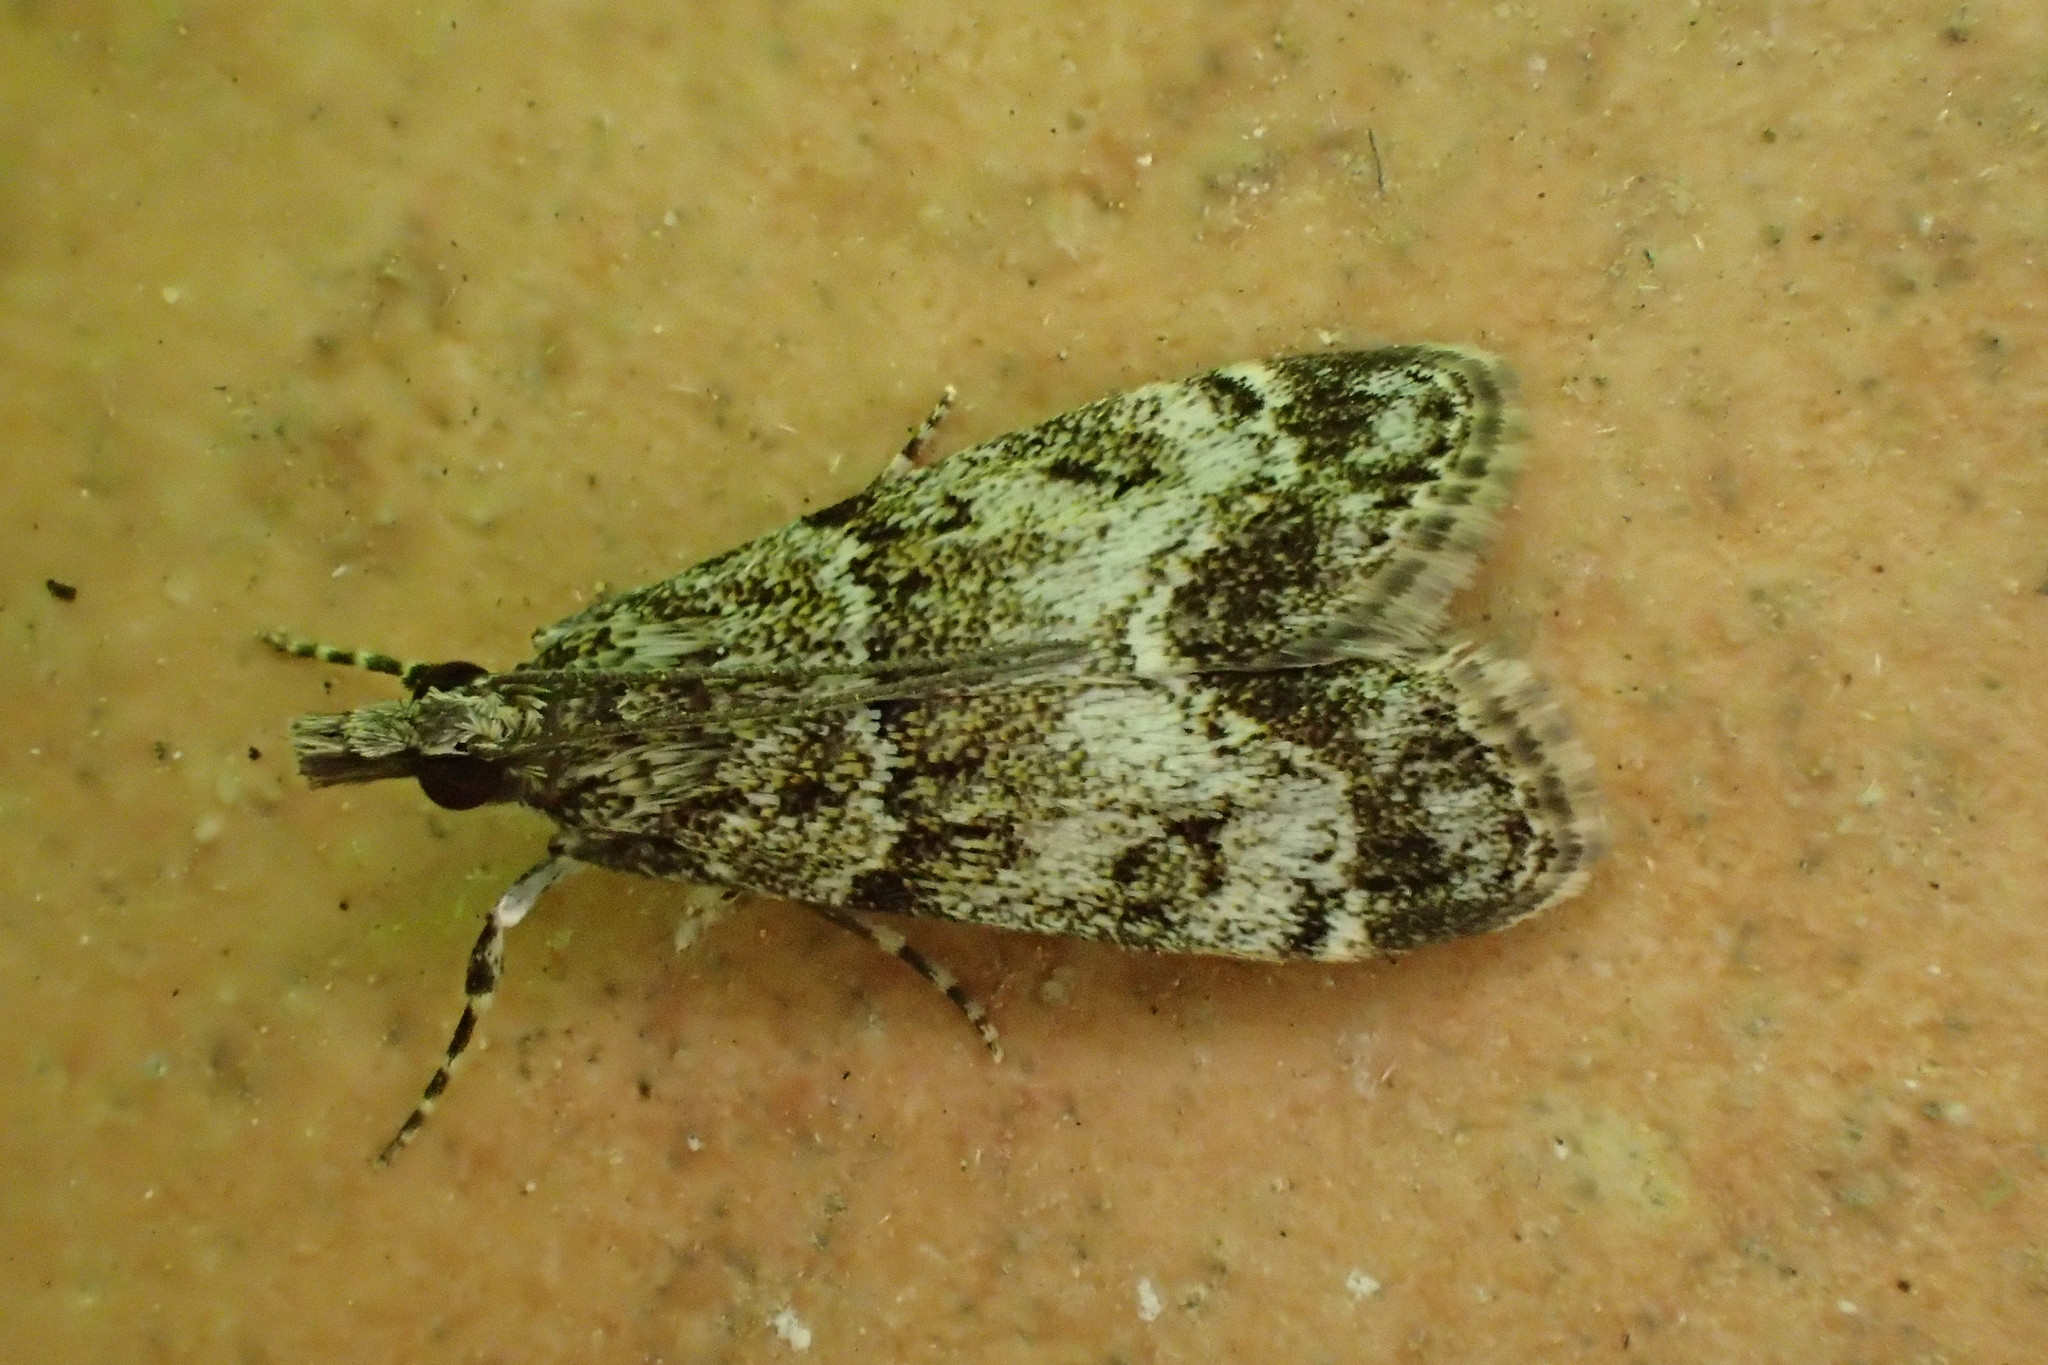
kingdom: Animalia
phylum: Arthropoda
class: Insecta
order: Lepidoptera
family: Crambidae
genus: Eudonia
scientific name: Eudonia mercurella
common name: Small grey
